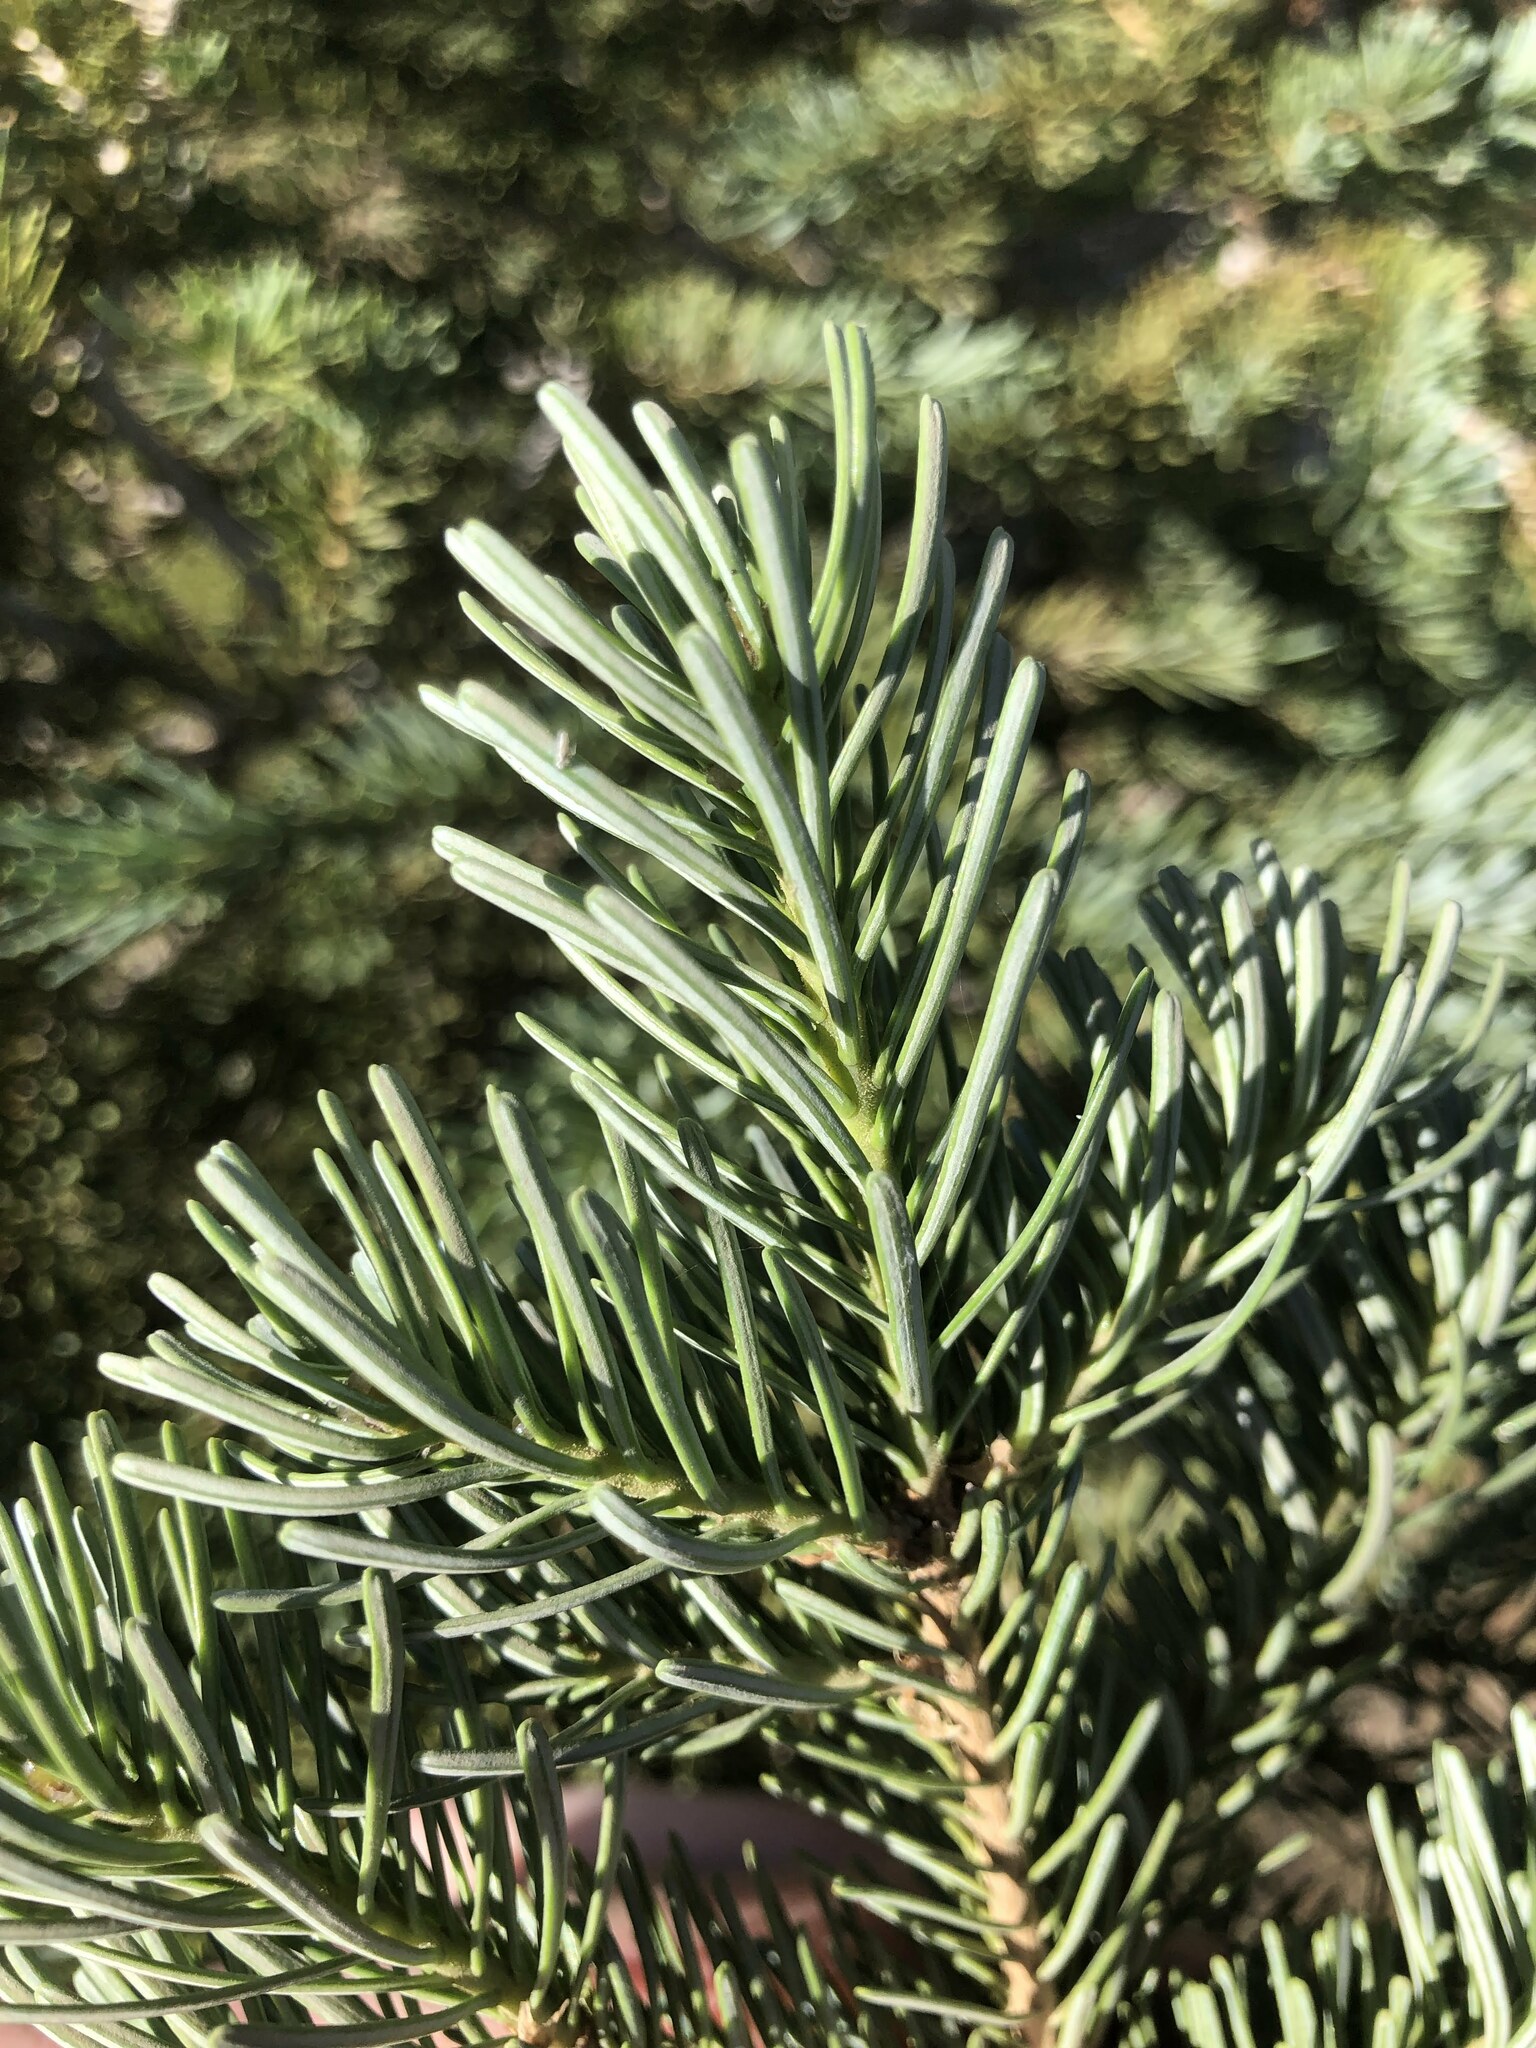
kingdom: Plantae
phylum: Tracheophyta
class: Pinopsida
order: Pinales
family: Pinaceae
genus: Abies
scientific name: Abies lasiocarpa
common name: Subalpine fir
